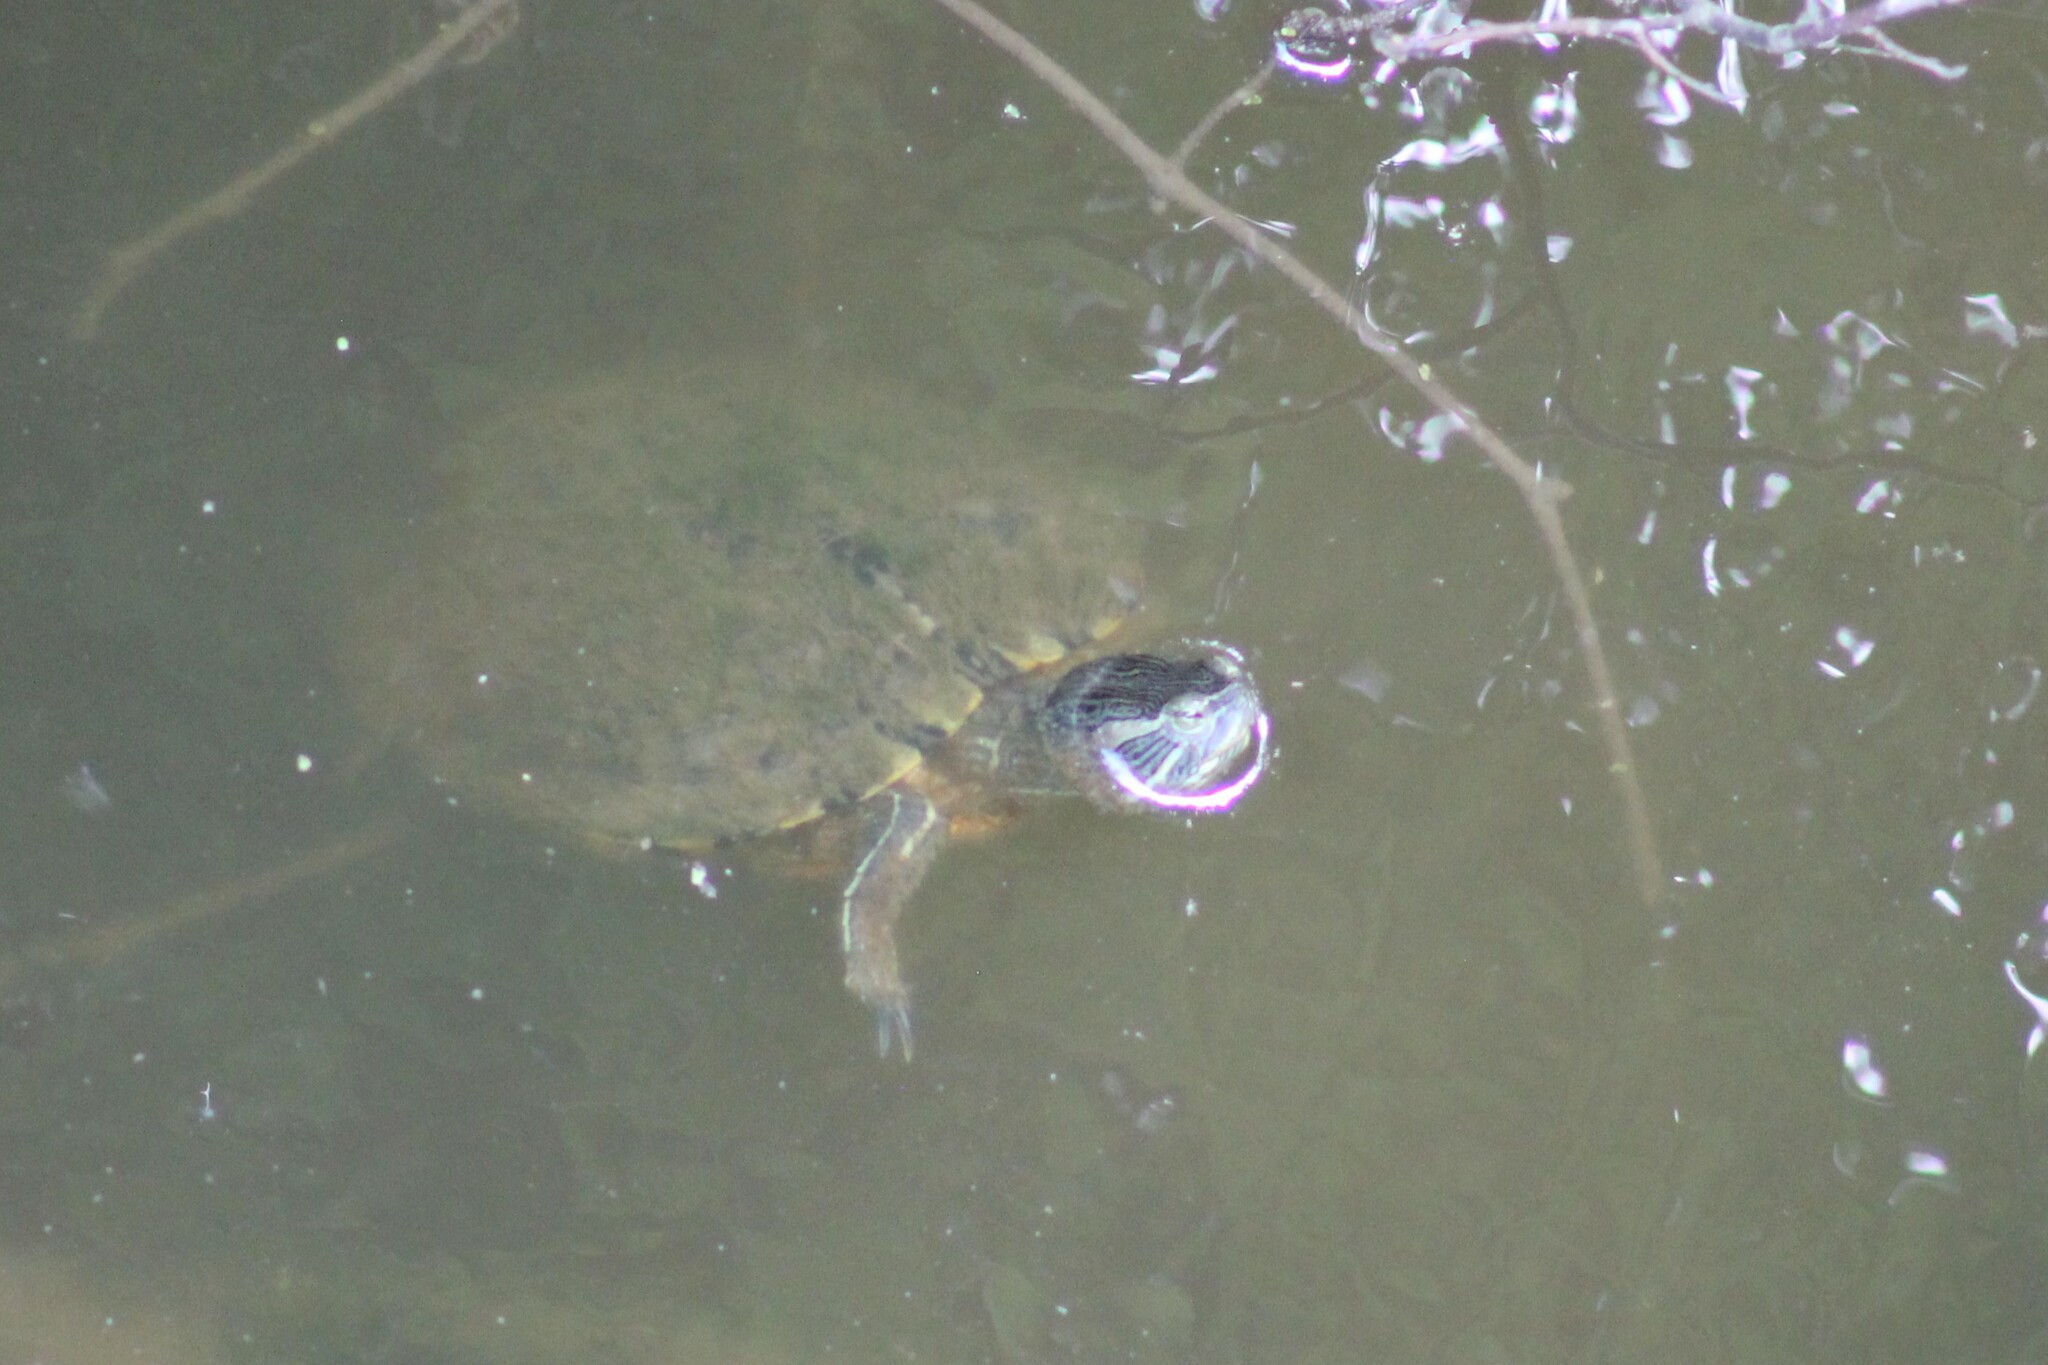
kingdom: Animalia
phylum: Chordata
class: Testudines
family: Emydidae
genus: Trachemys
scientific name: Trachemys scripta
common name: Slider
